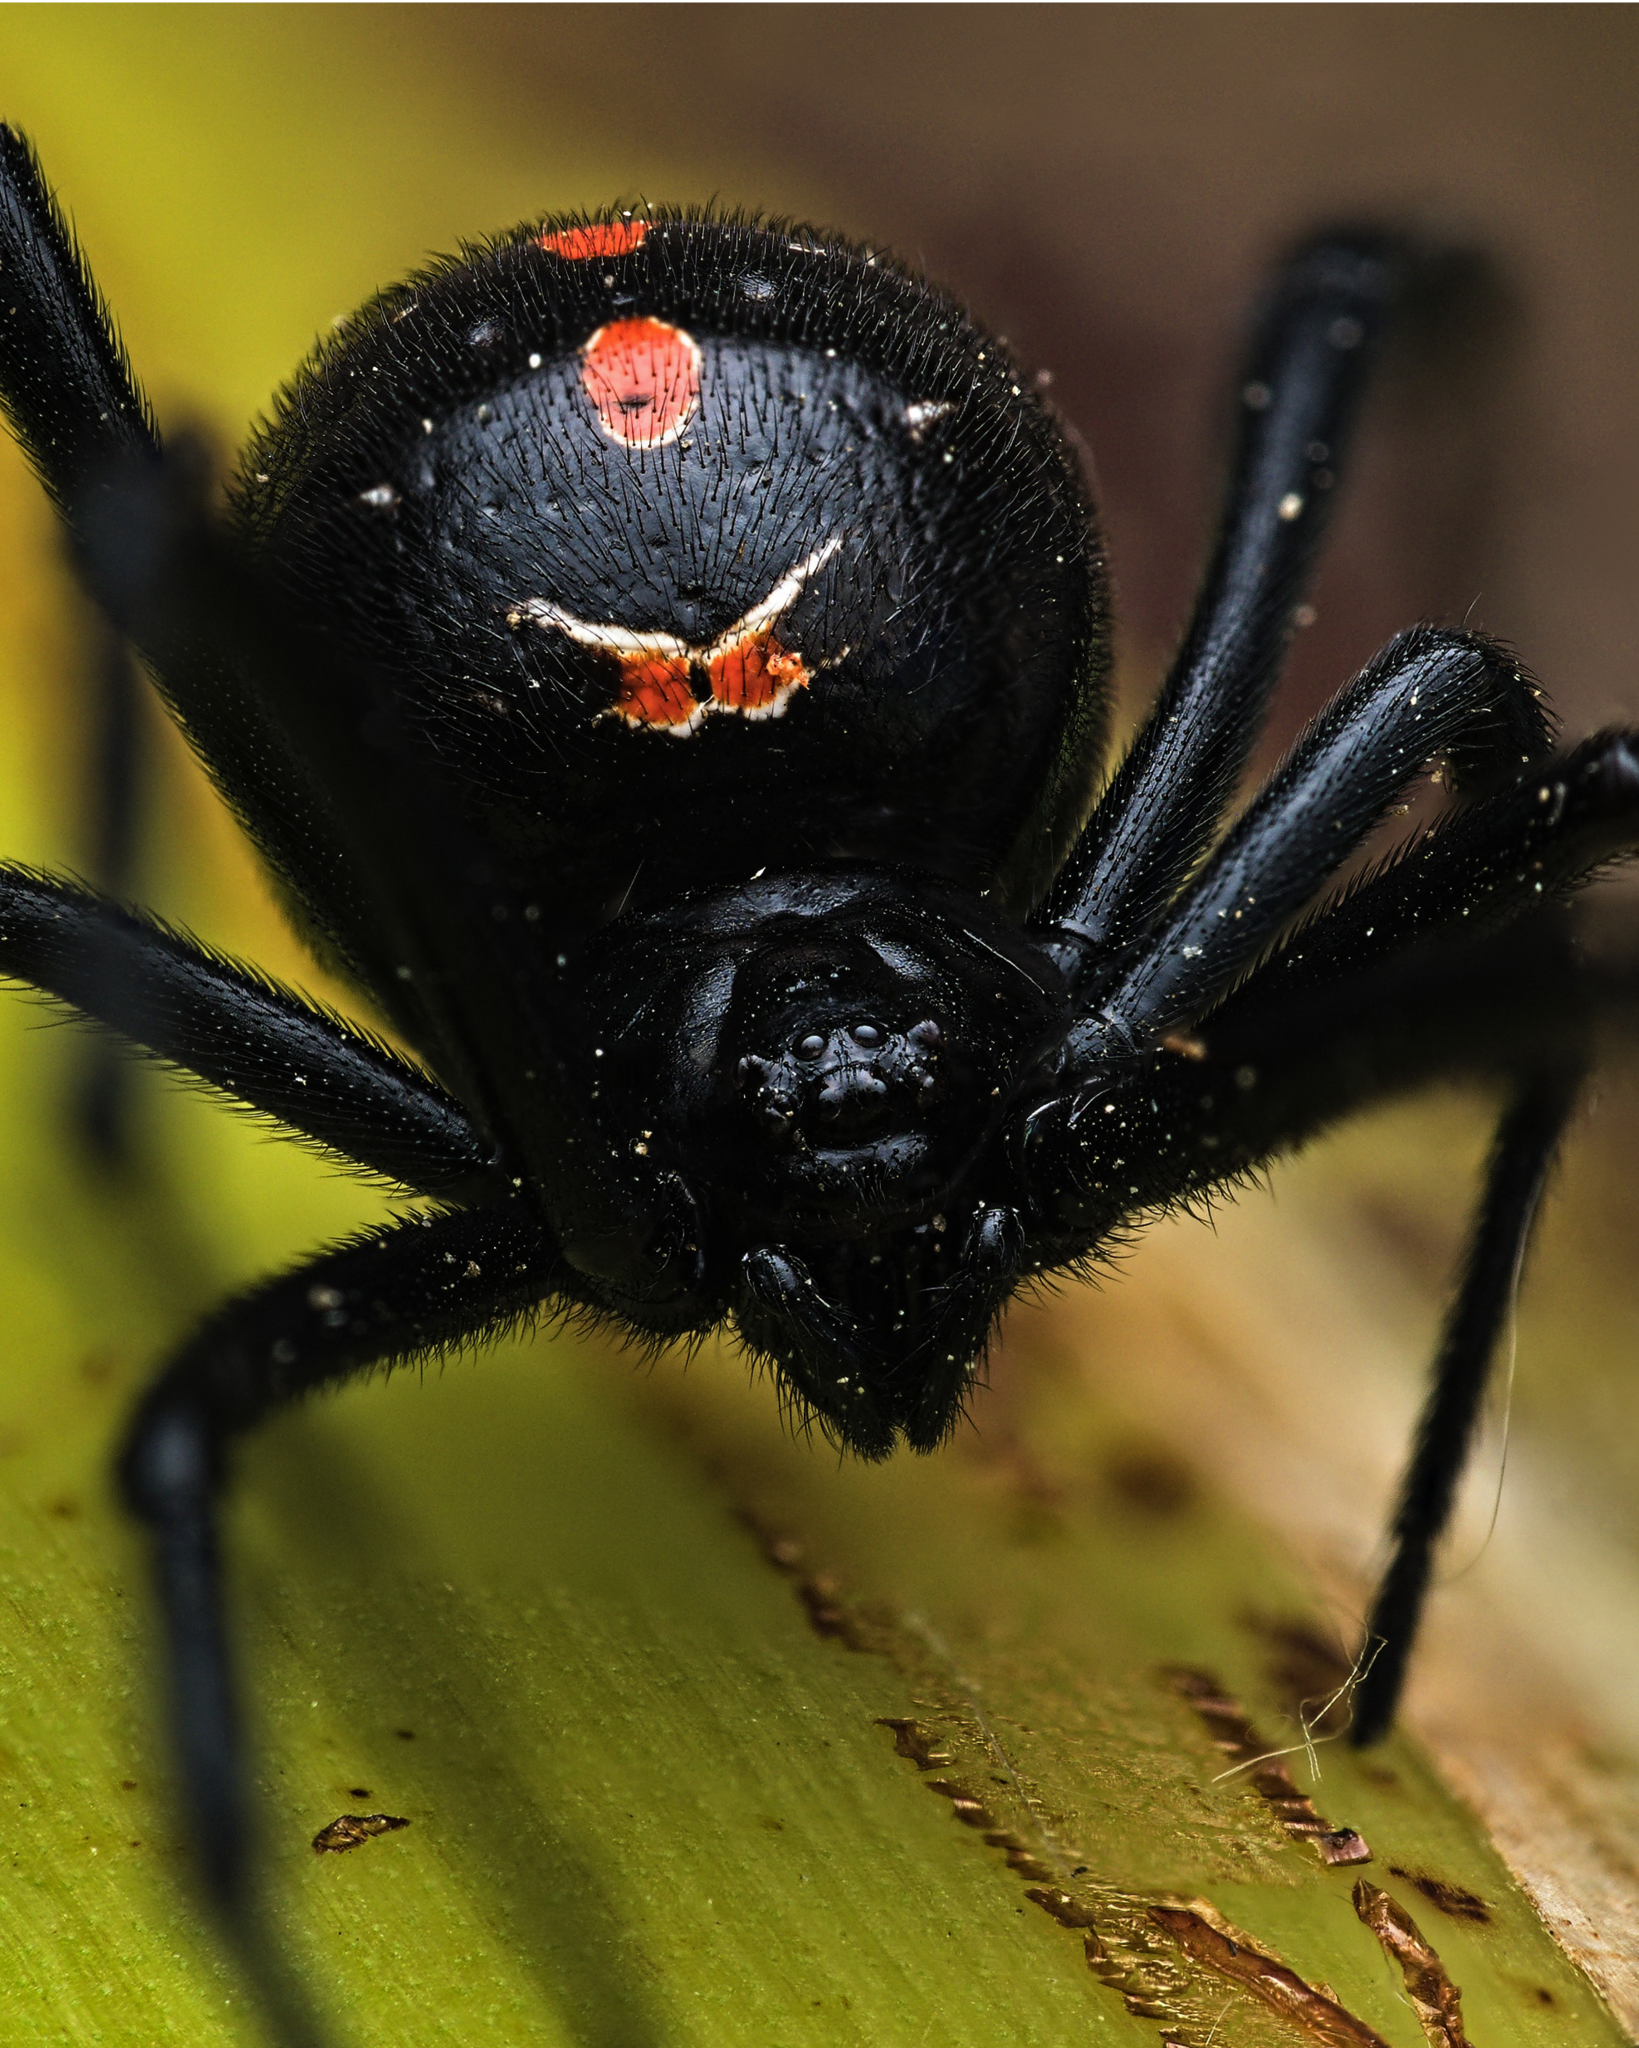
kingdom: Animalia
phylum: Arthropoda
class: Arachnida
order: Araneae
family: Theridiidae
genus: Latrodectus
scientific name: Latrodectus mactans
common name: Cobweb spiders
